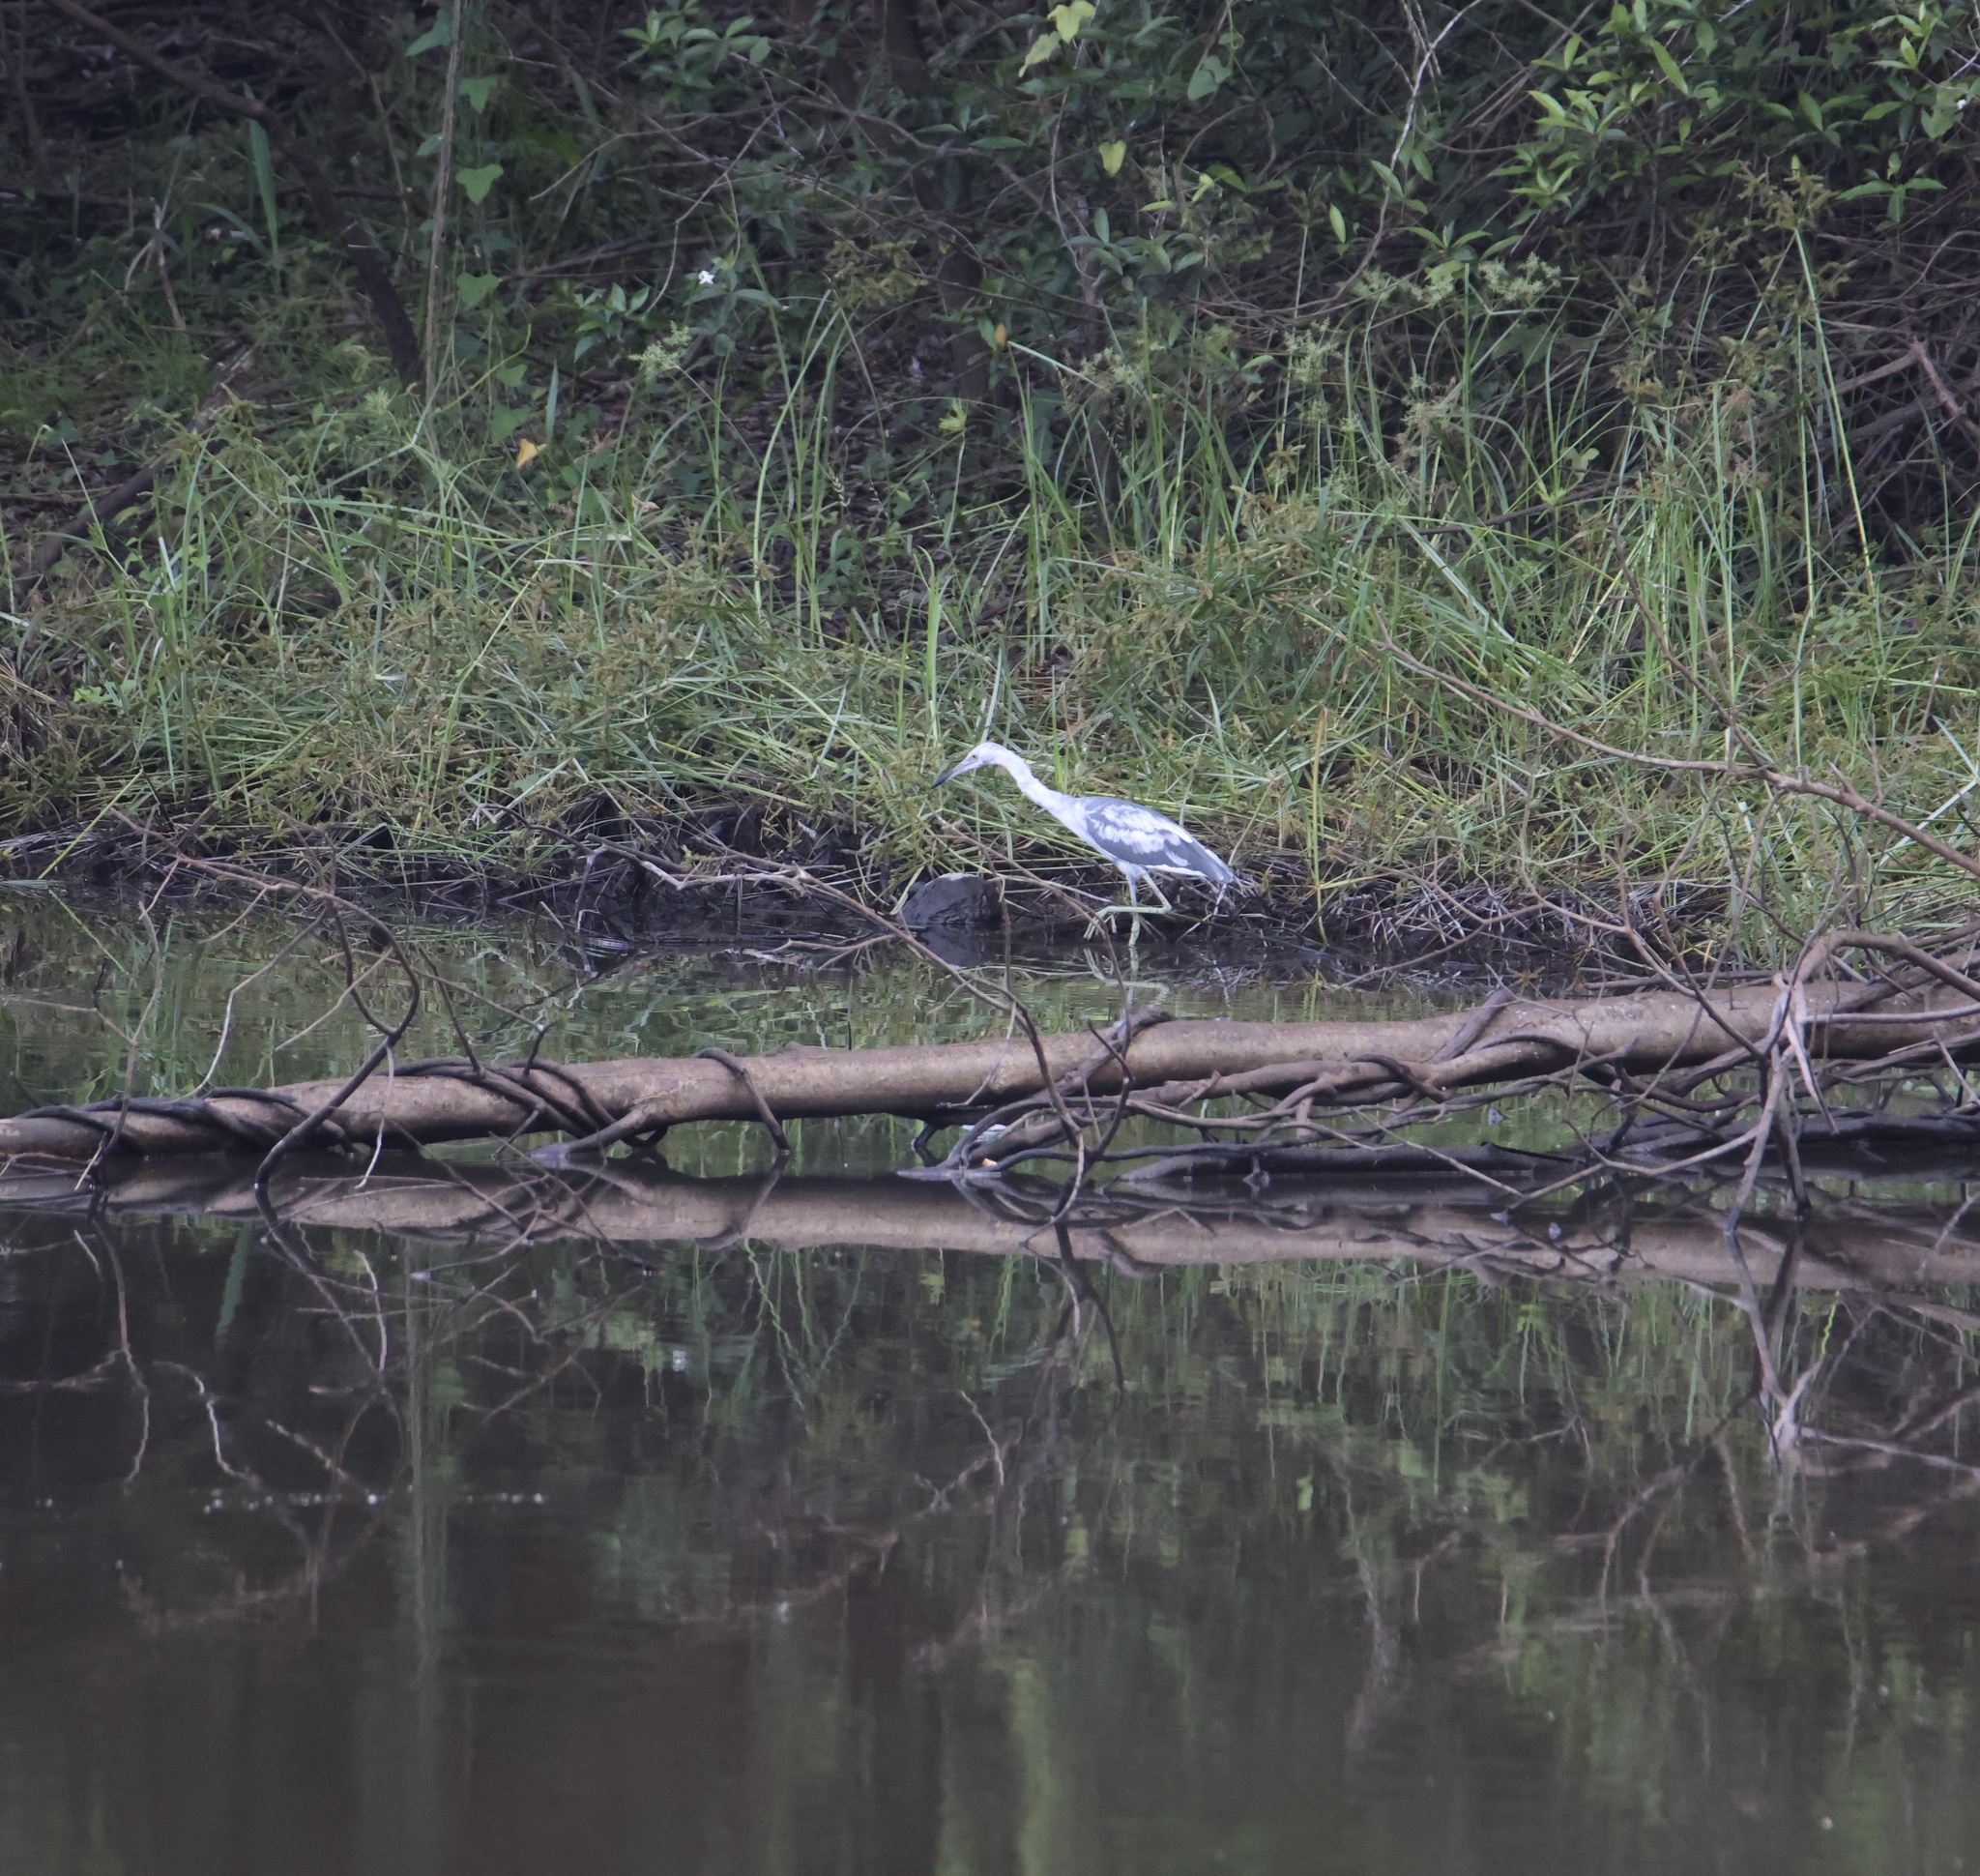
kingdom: Animalia
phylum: Chordata
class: Aves
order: Pelecaniformes
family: Ardeidae
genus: Egretta
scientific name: Egretta caerulea
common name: Little blue heron
